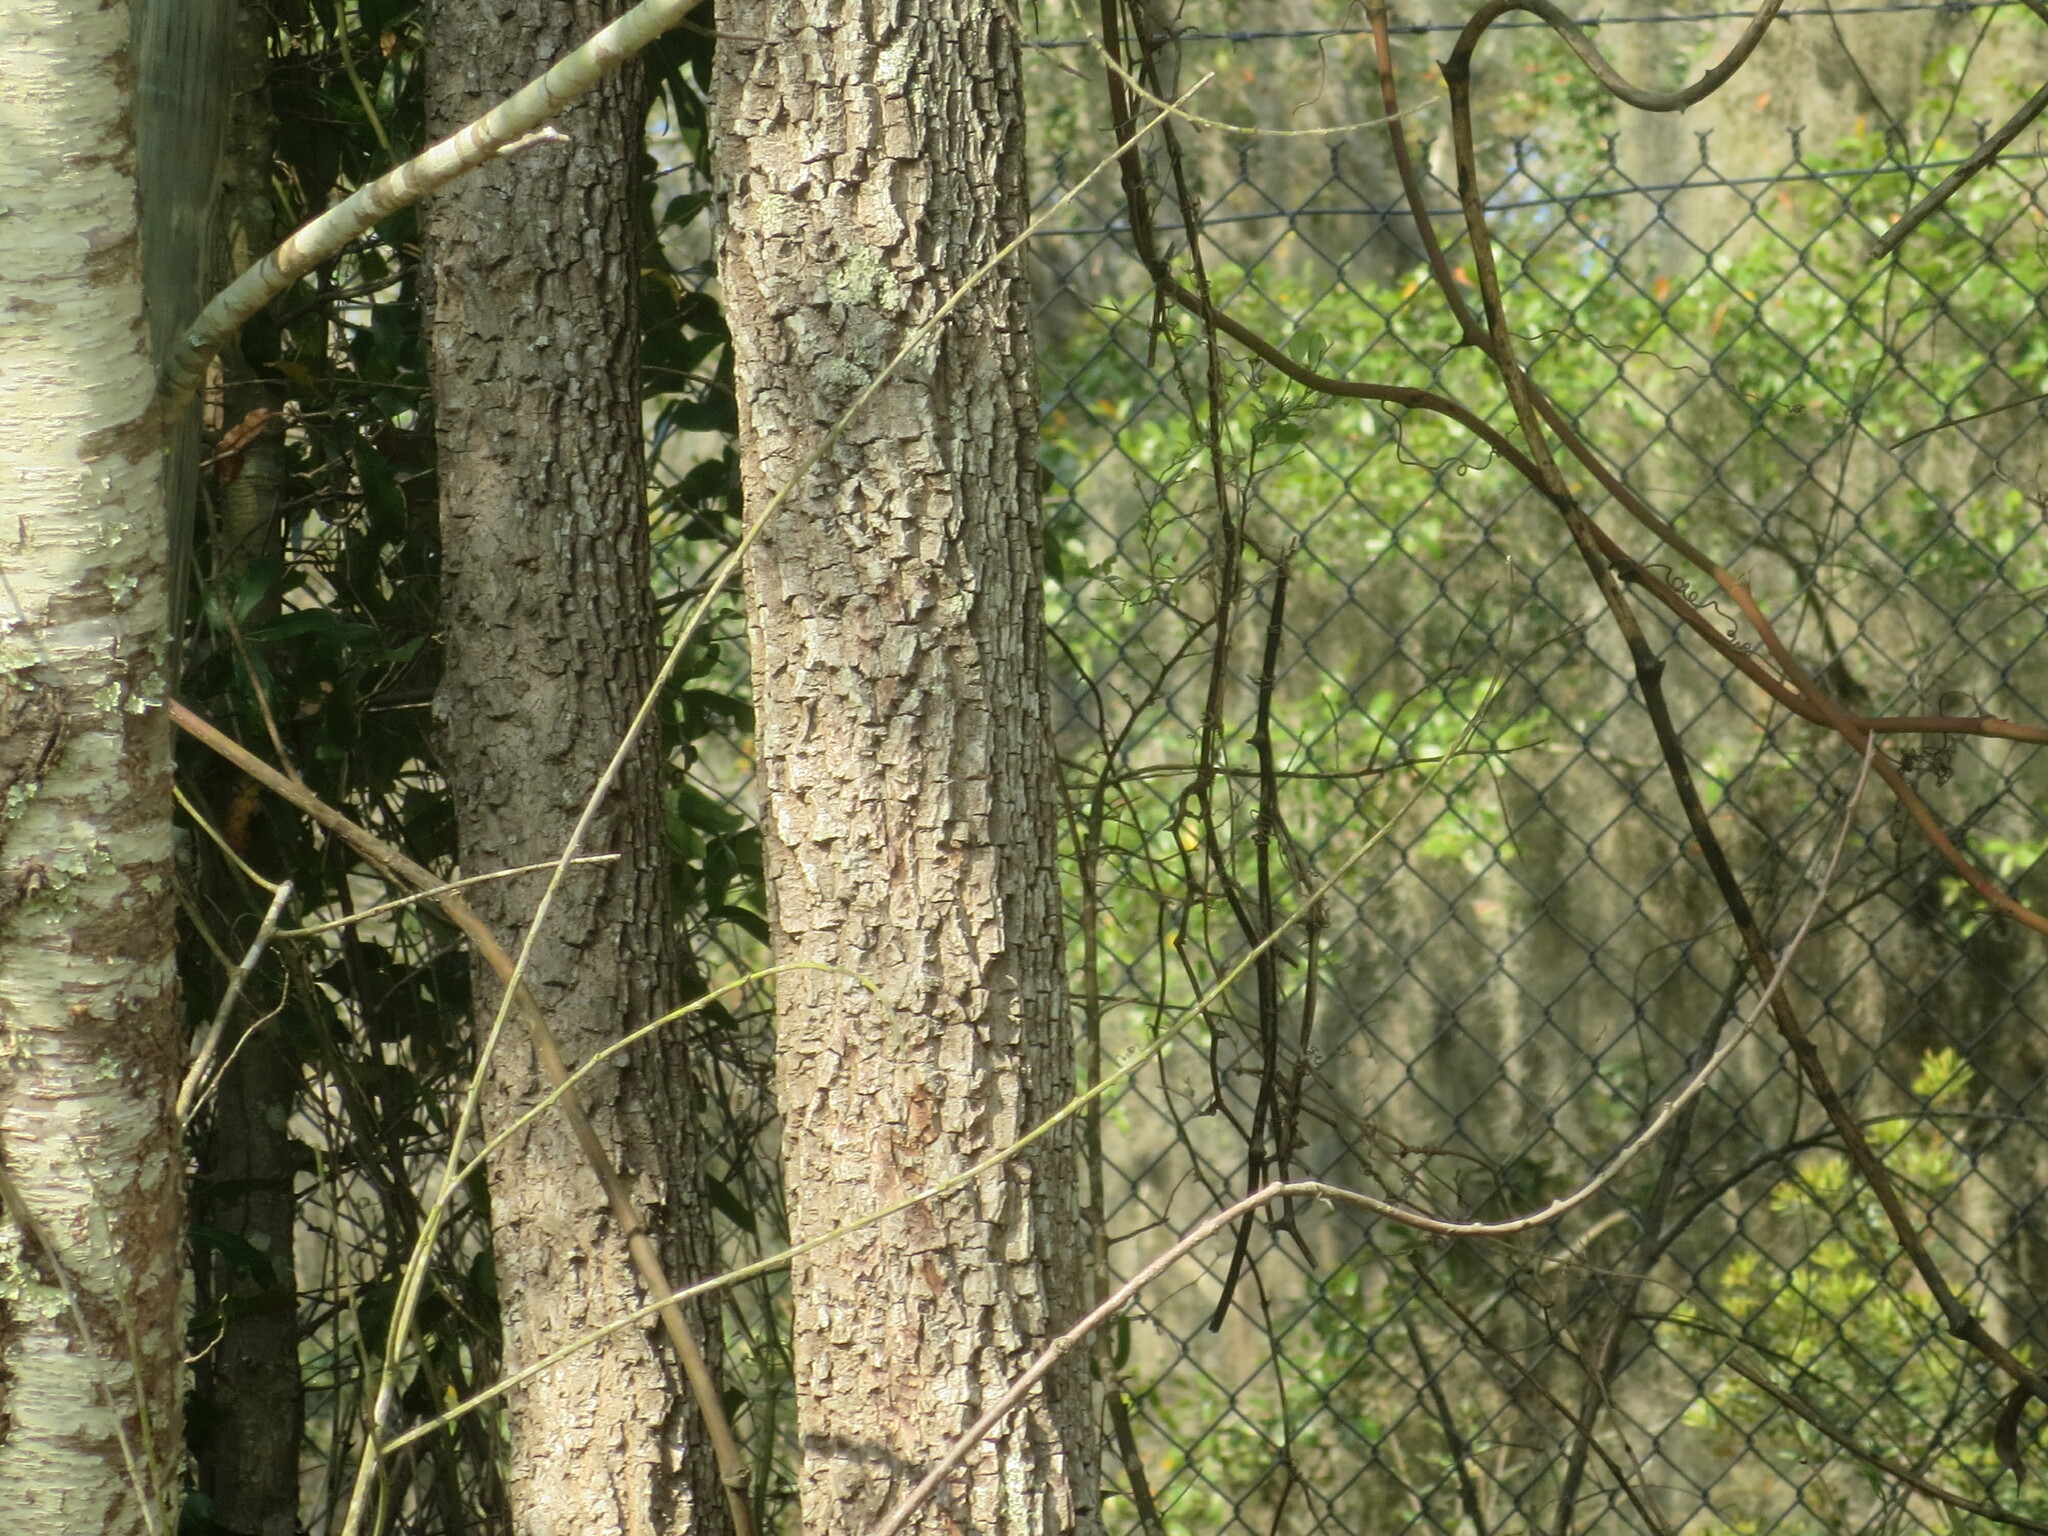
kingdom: Plantae
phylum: Tracheophyta
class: Magnoliopsida
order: Ericales
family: Ebenaceae
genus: Diospyros
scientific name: Diospyros virginiana
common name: Persimmon
